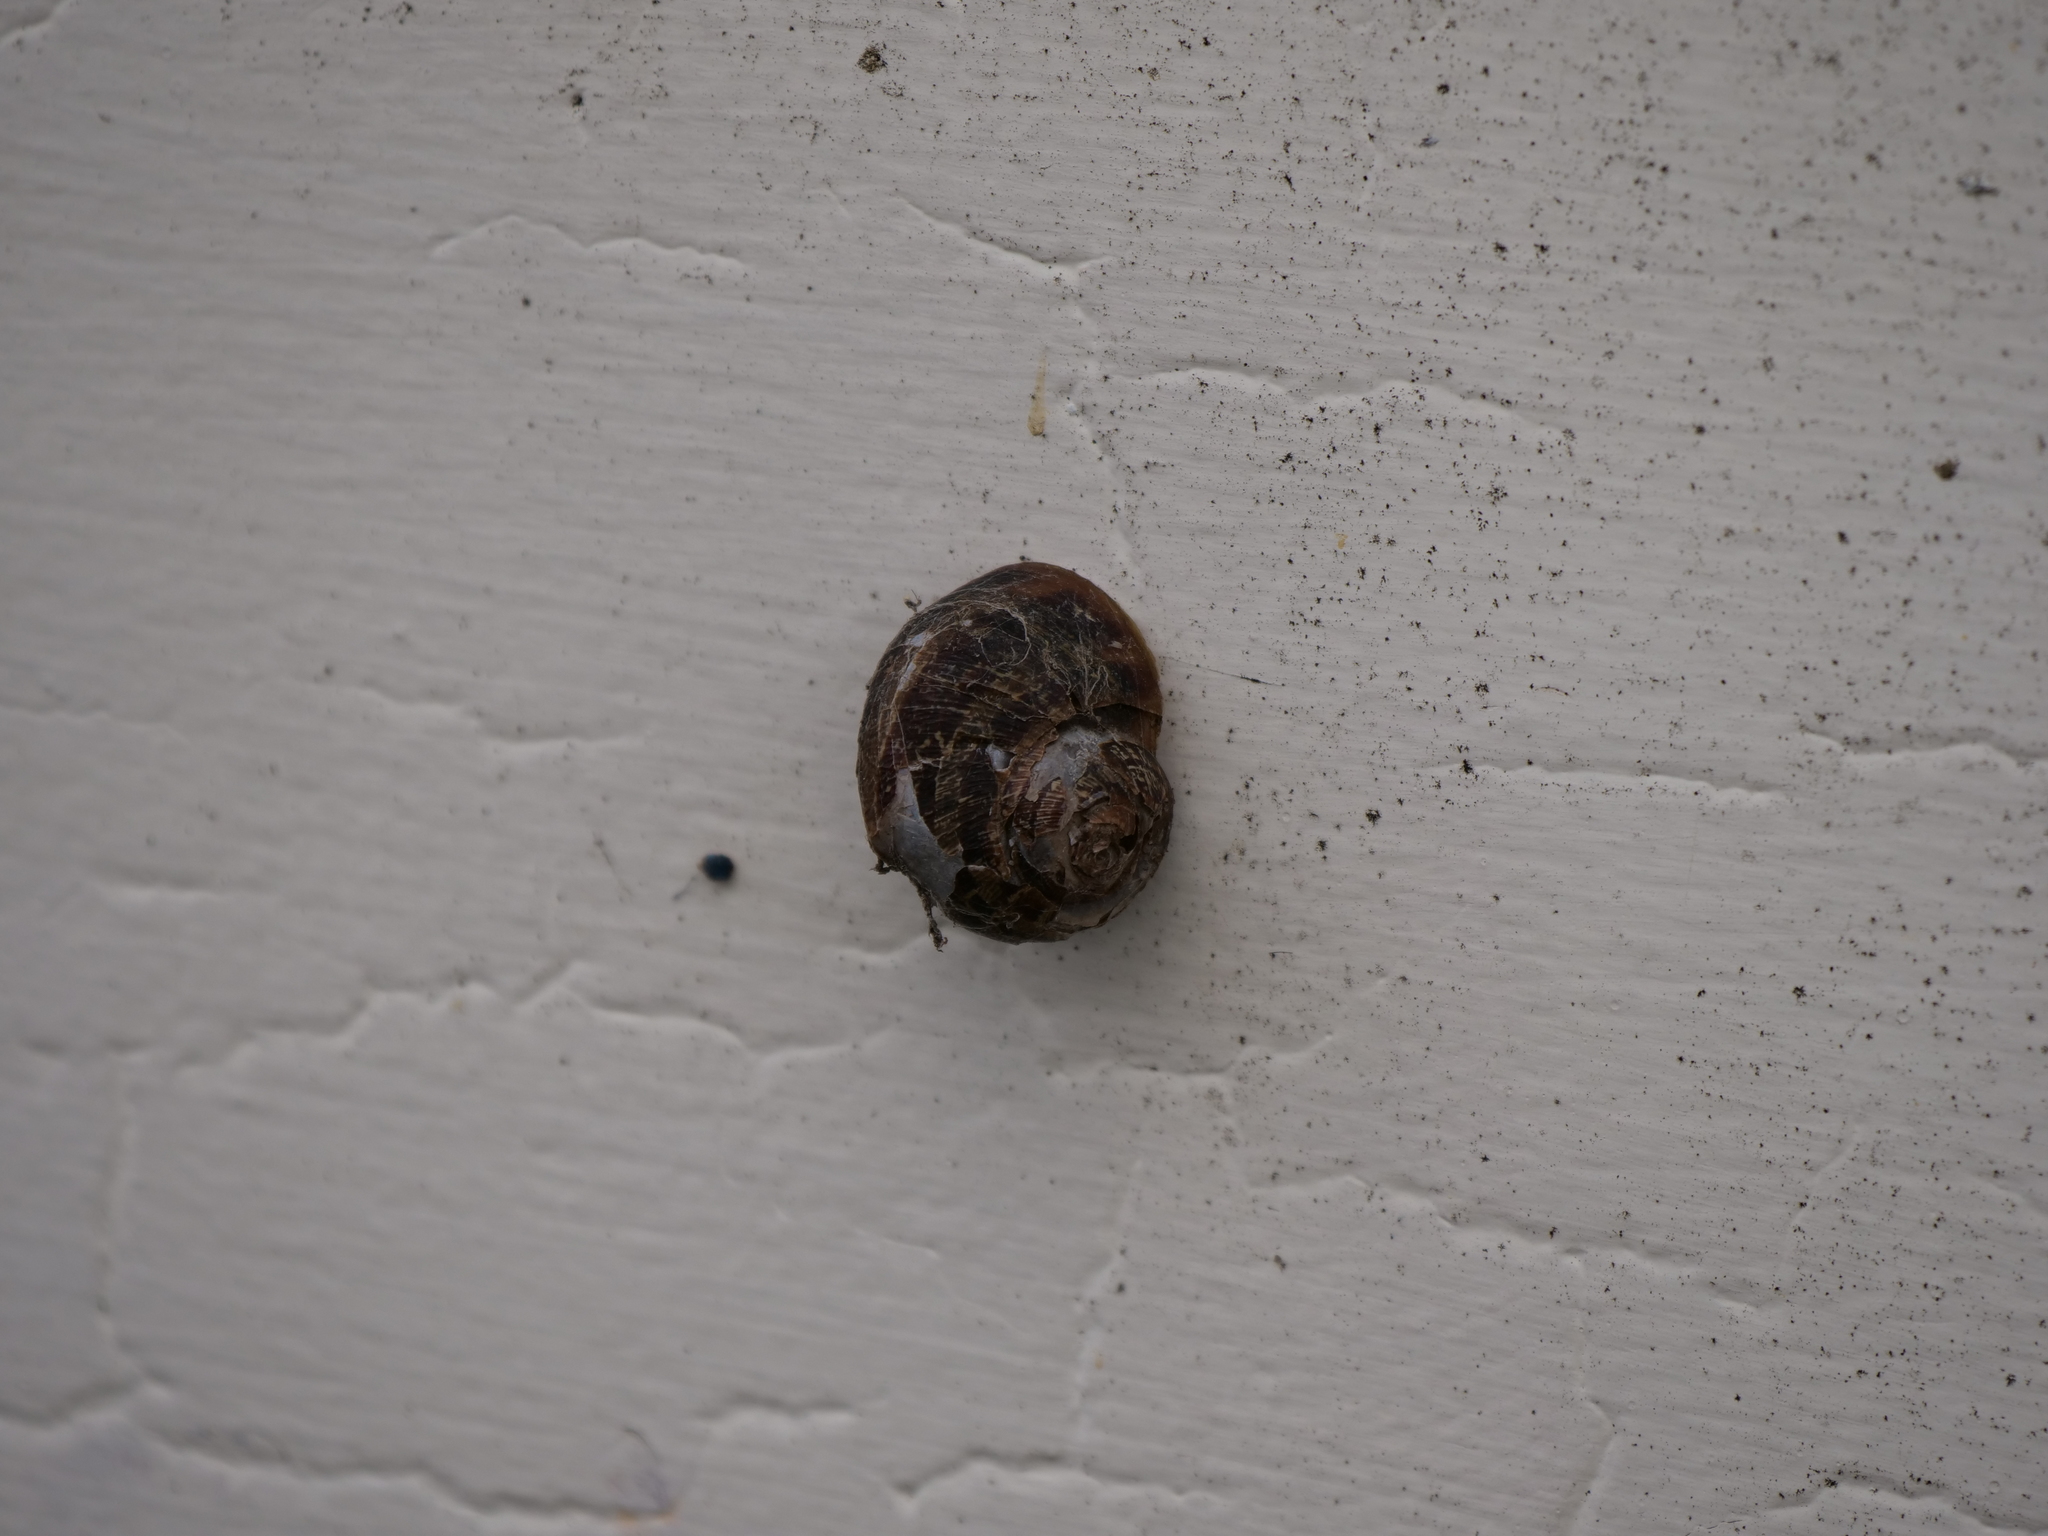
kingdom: Animalia
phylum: Mollusca
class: Gastropoda
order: Stylommatophora
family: Helicidae
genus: Cornu
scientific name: Cornu aspersum
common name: Brown garden snail
